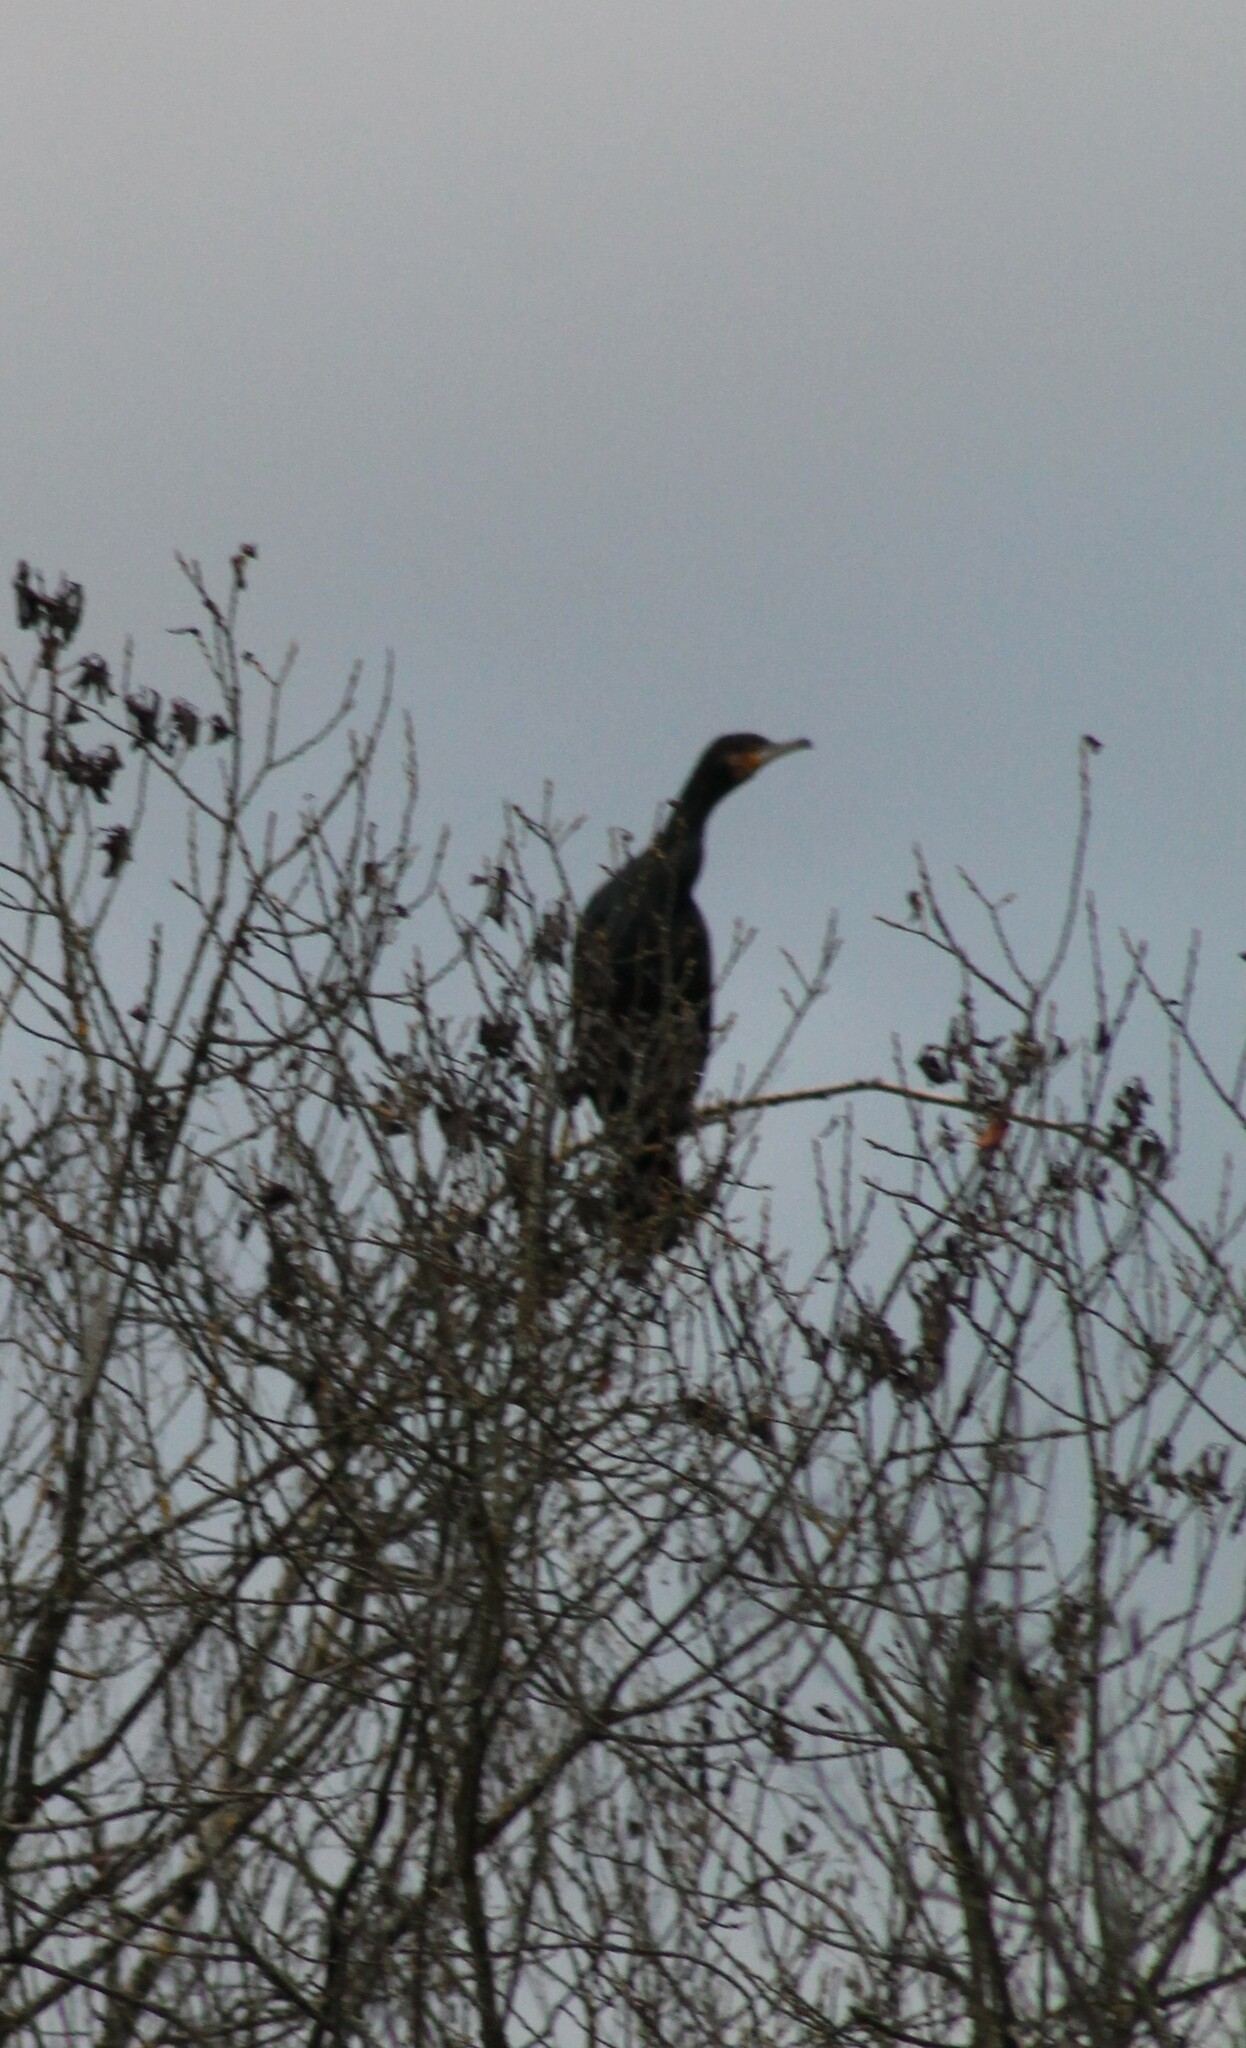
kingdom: Animalia
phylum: Chordata
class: Aves
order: Suliformes
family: Phalacrocoracidae
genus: Phalacrocorax
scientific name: Phalacrocorax carbo
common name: Great cormorant
